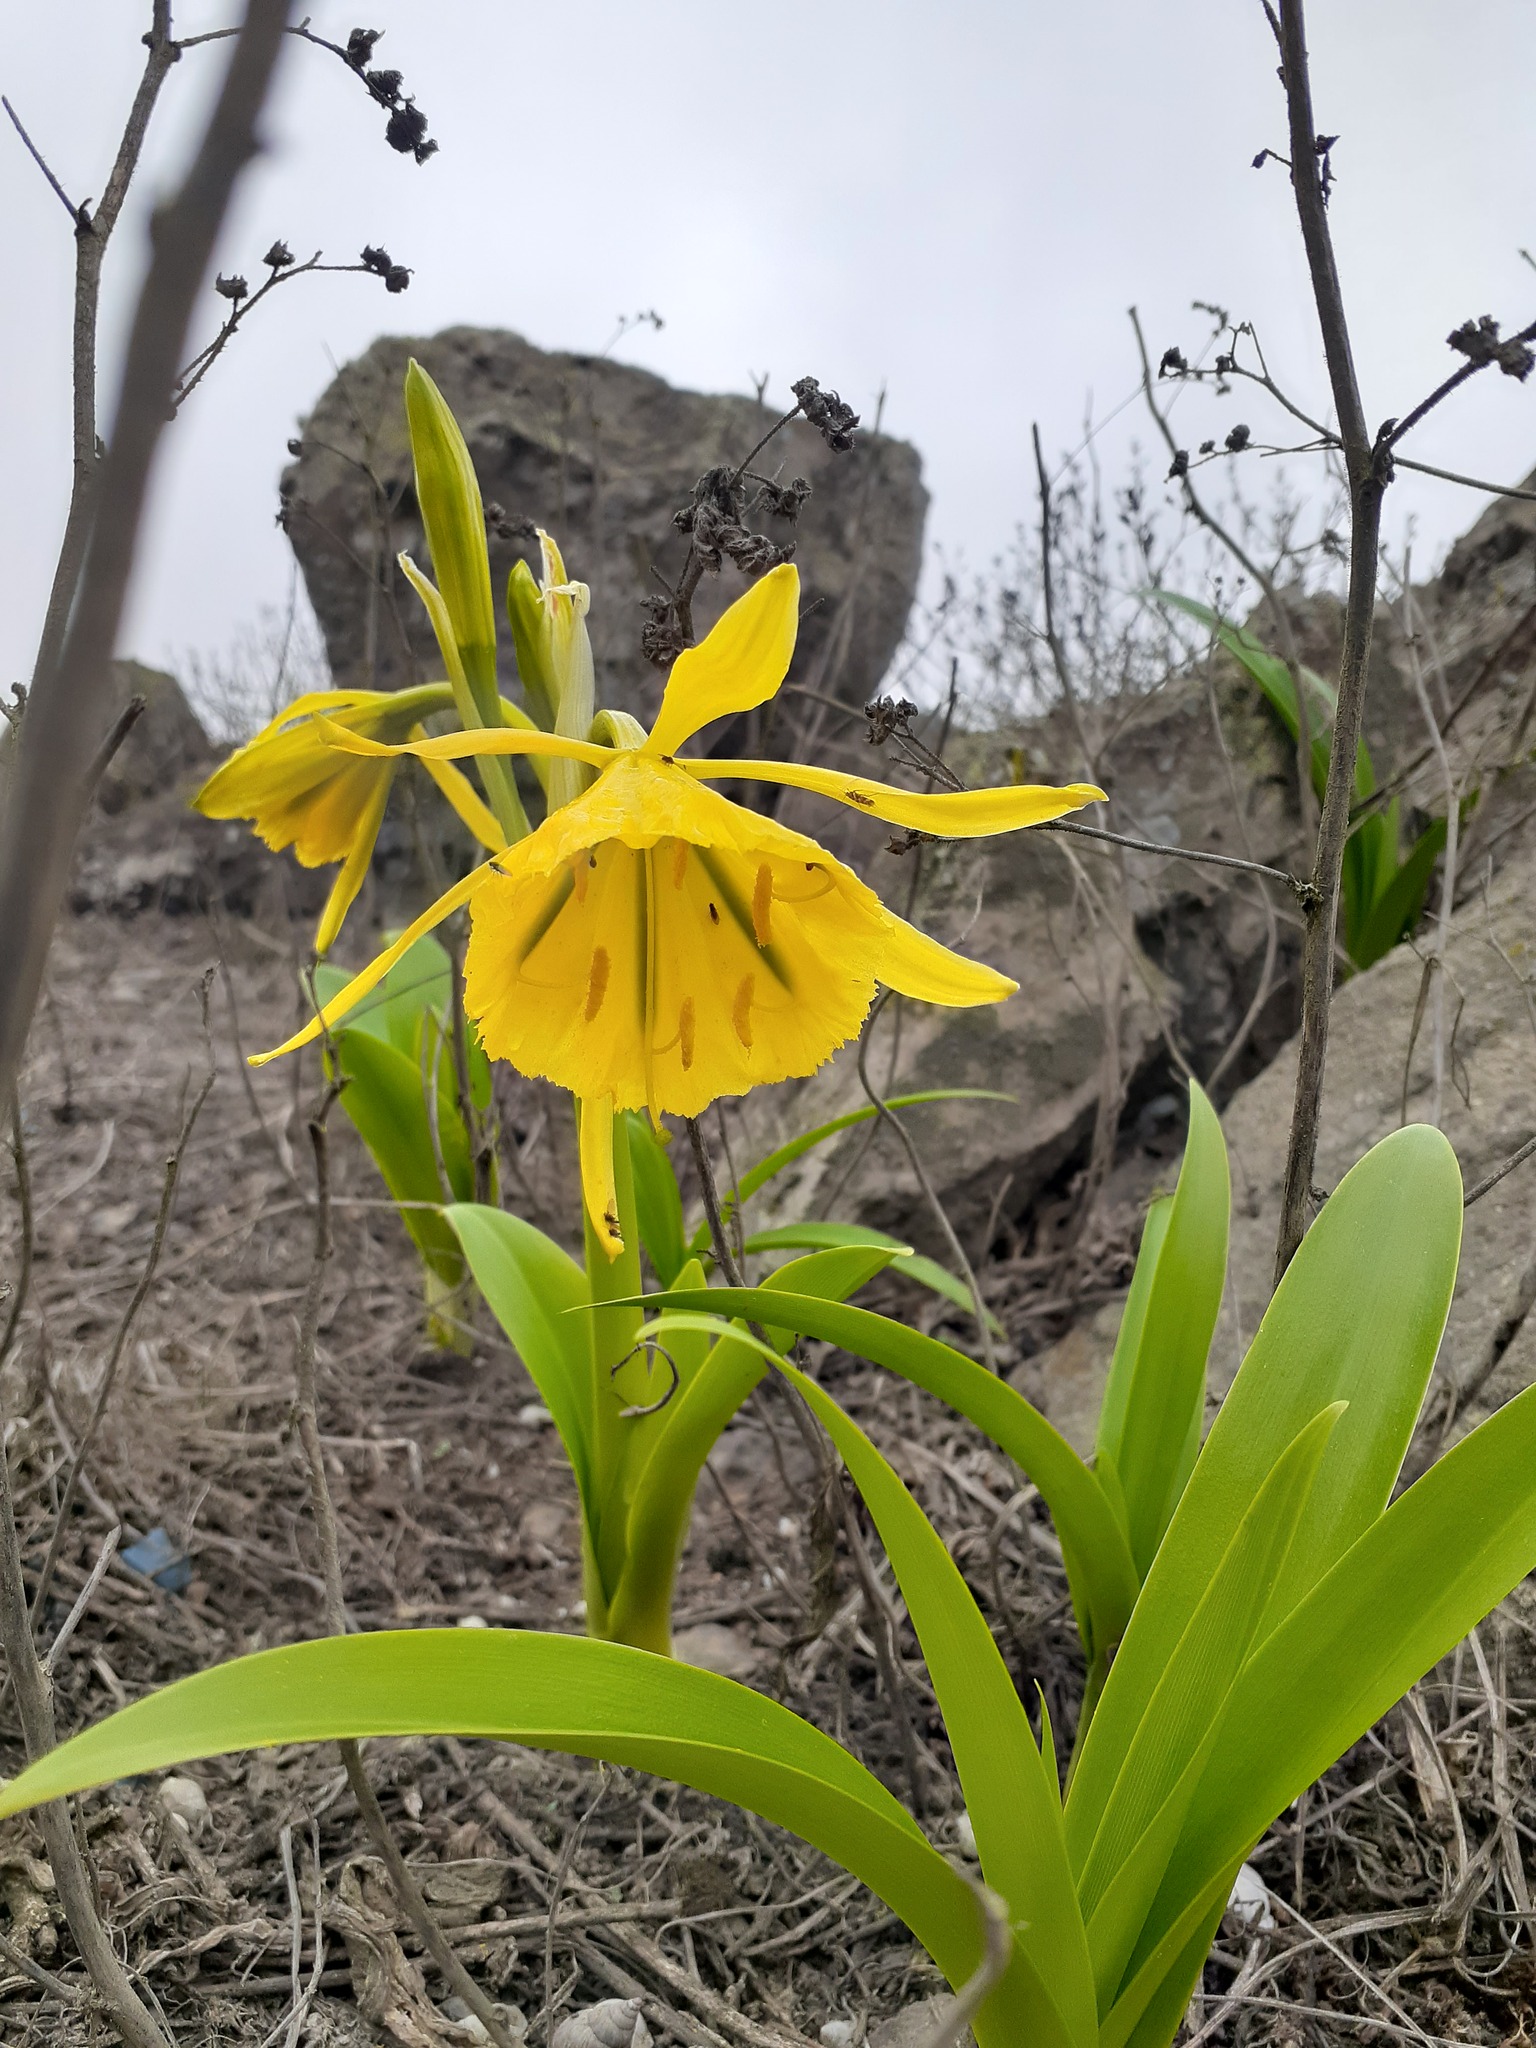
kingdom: Plantae
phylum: Tracheophyta
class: Liliopsida
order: Asparagales
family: Amaryllidaceae
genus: Ismene
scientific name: Ismene amancaes
